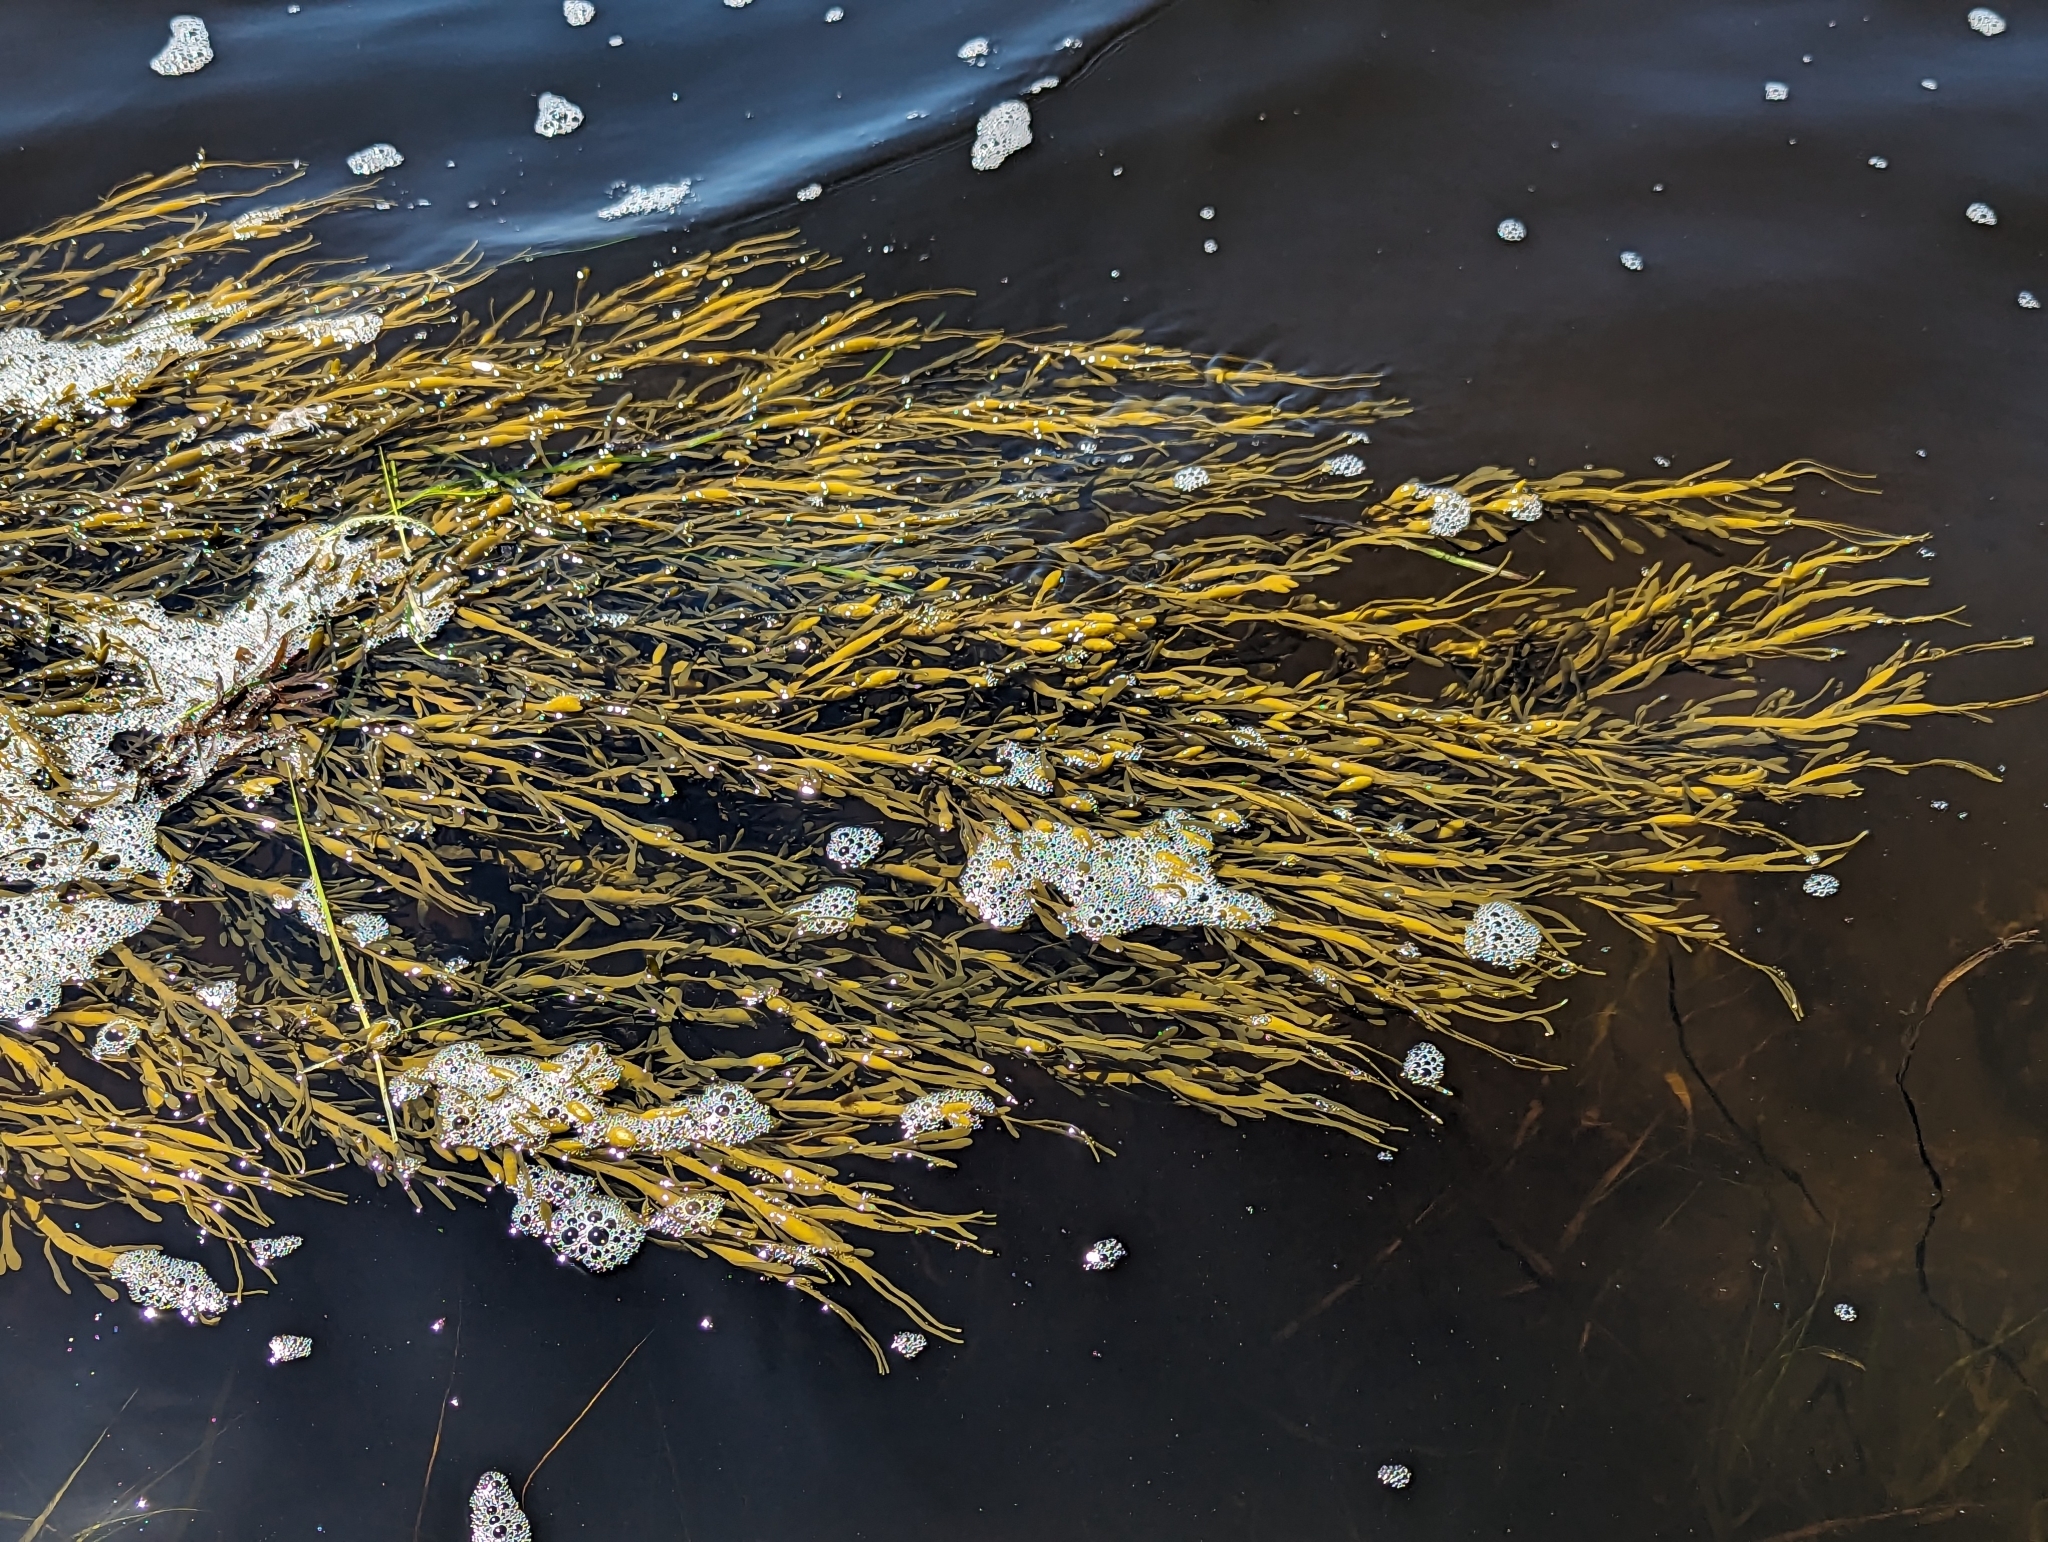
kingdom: Chromista
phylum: Ochrophyta
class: Phaeophyceae
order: Fucales
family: Fucaceae
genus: Ascophyllum
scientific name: Ascophyllum nodosum
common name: Knotted wrack
